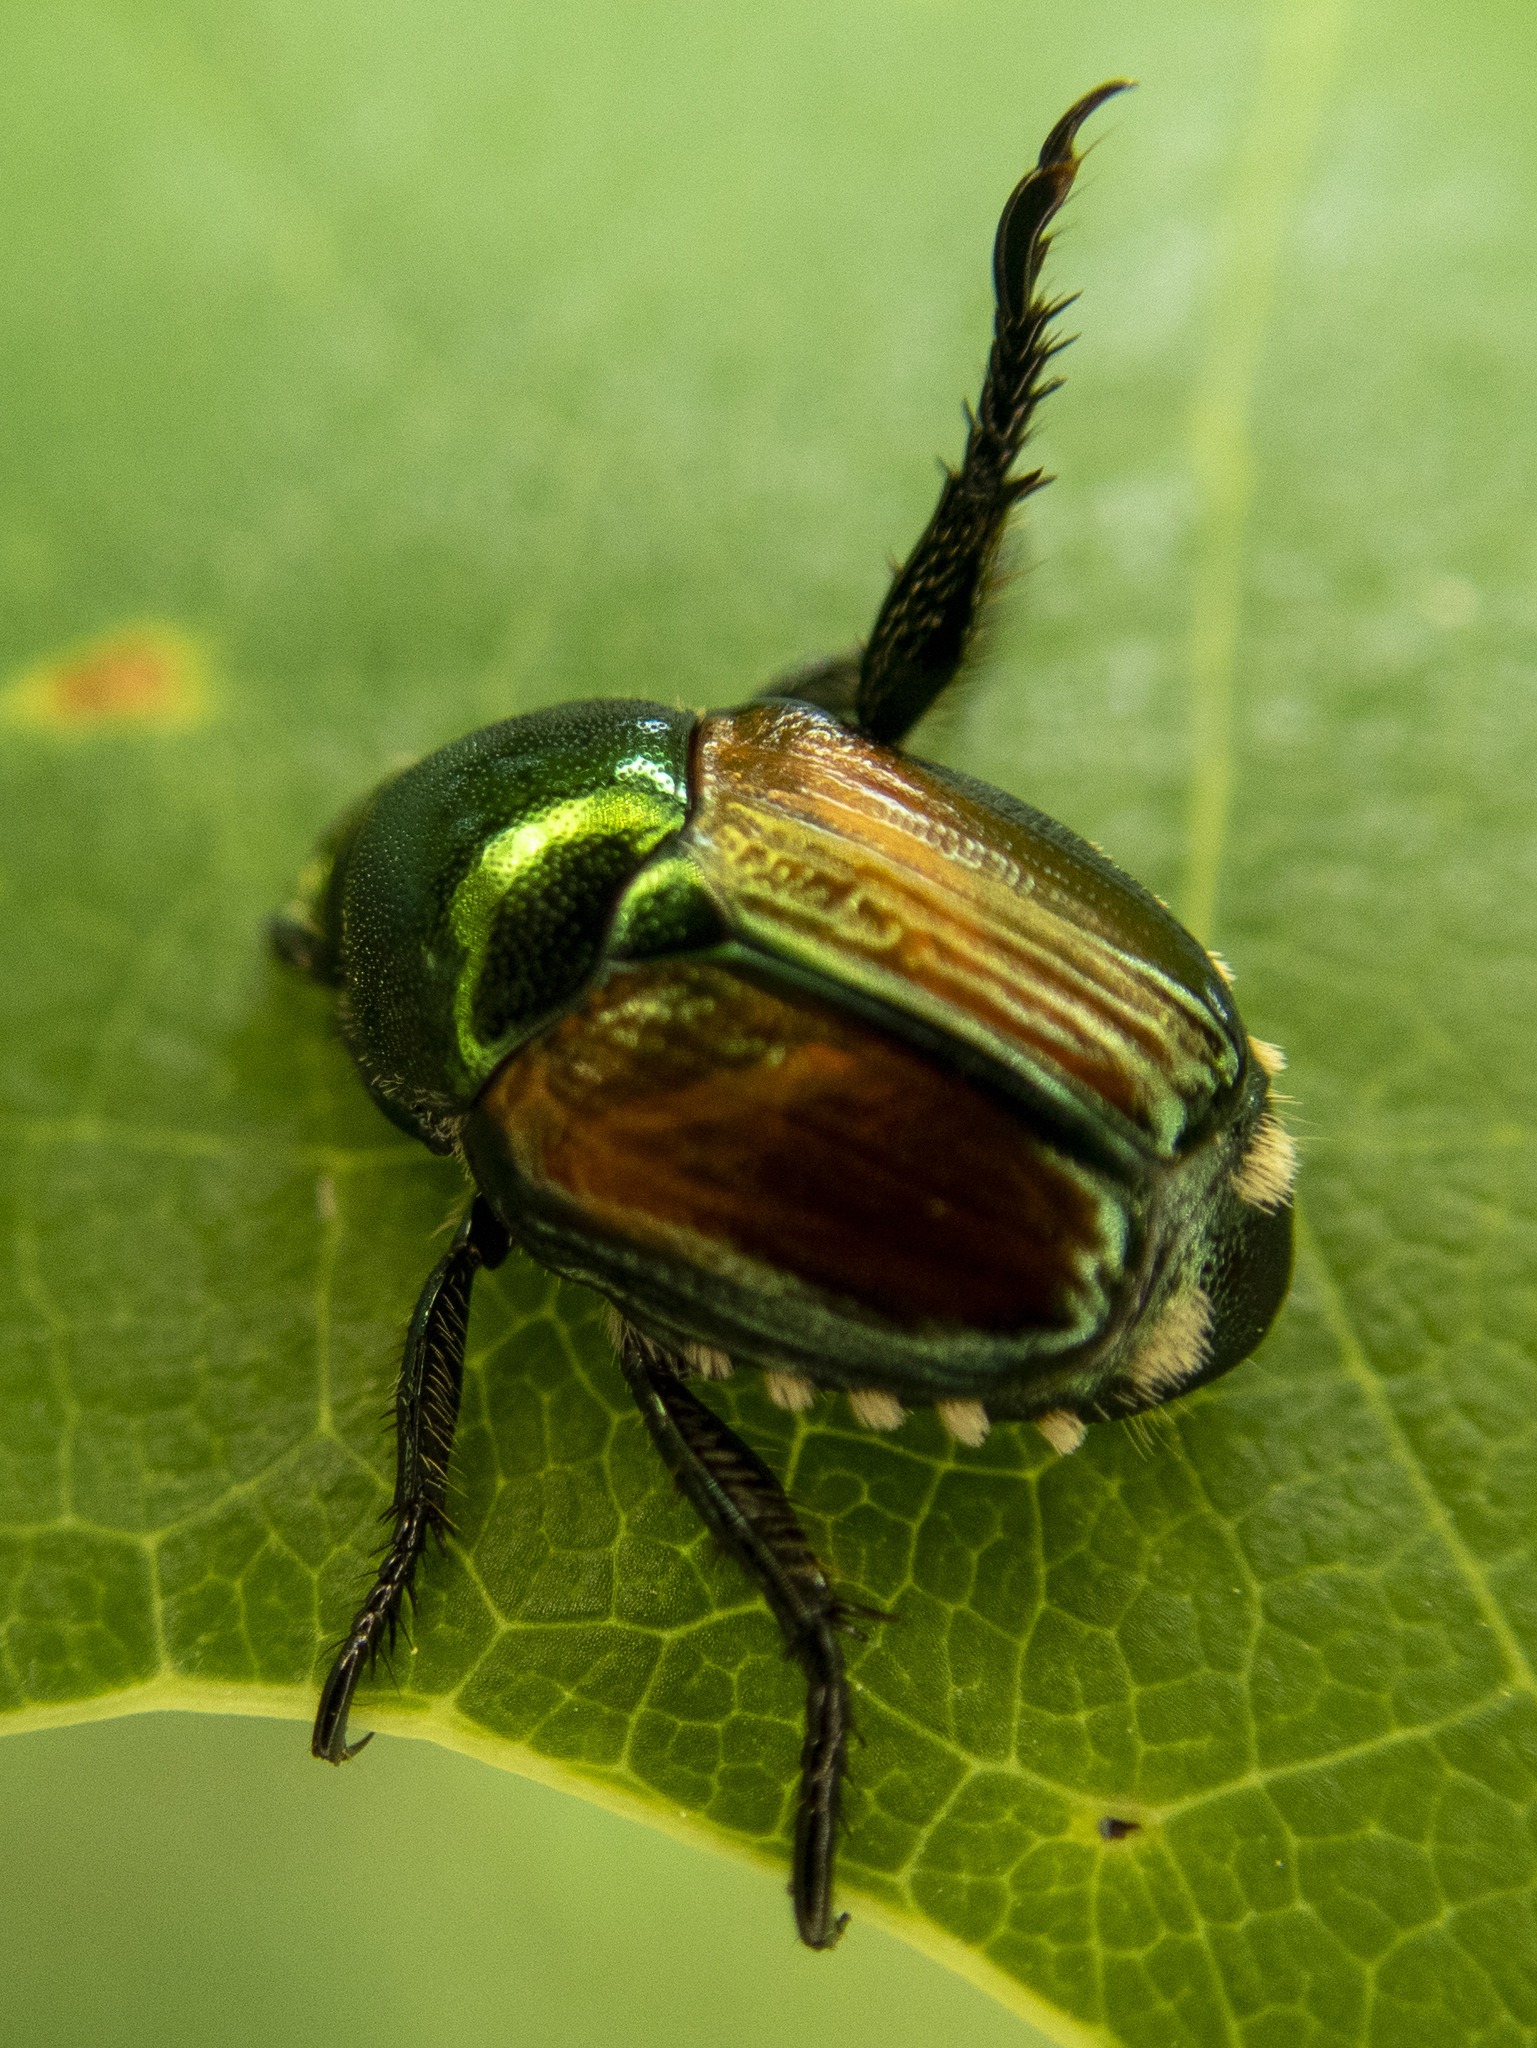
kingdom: Animalia
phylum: Arthropoda
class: Insecta
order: Coleoptera
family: Scarabaeidae
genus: Popillia
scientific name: Popillia japonica
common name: Japanese beetle
